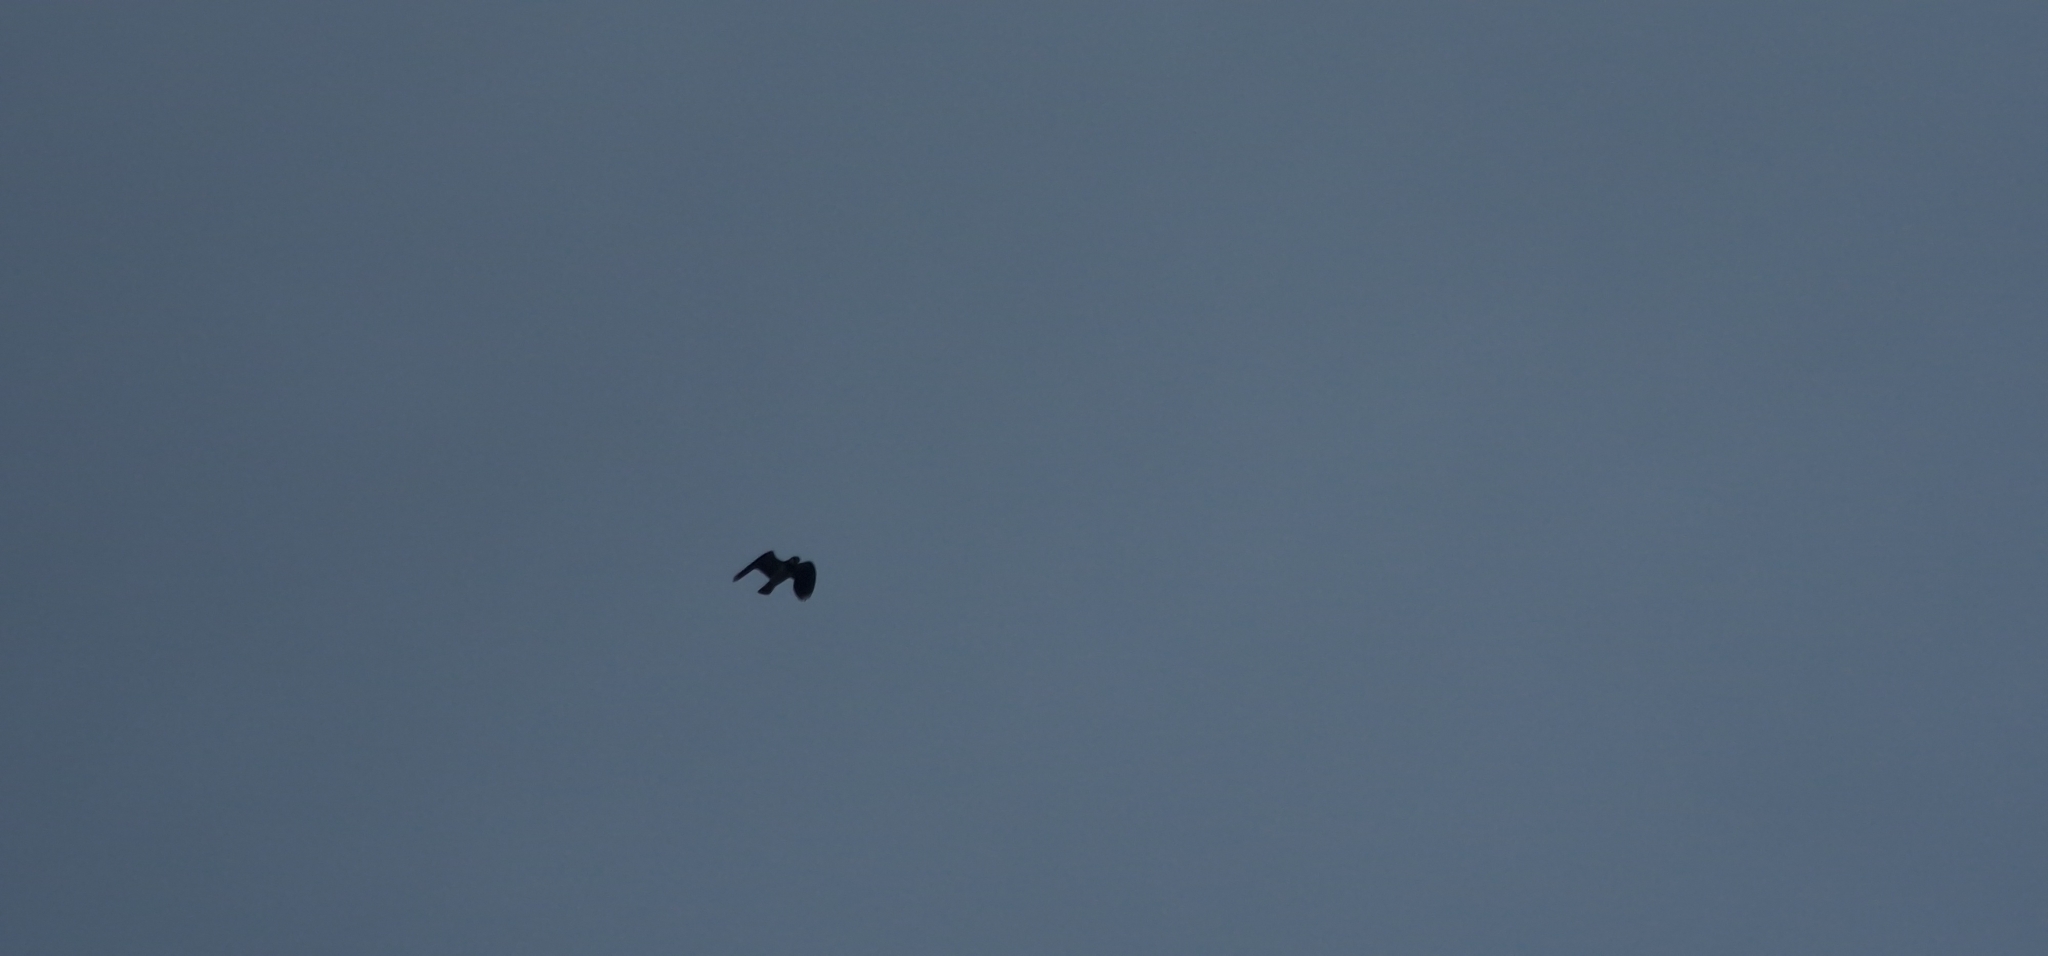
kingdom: Animalia
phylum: Chordata
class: Aves
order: Charadriiformes
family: Charadriidae
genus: Vanellus
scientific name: Vanellus vanellus
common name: Northern lapwing
